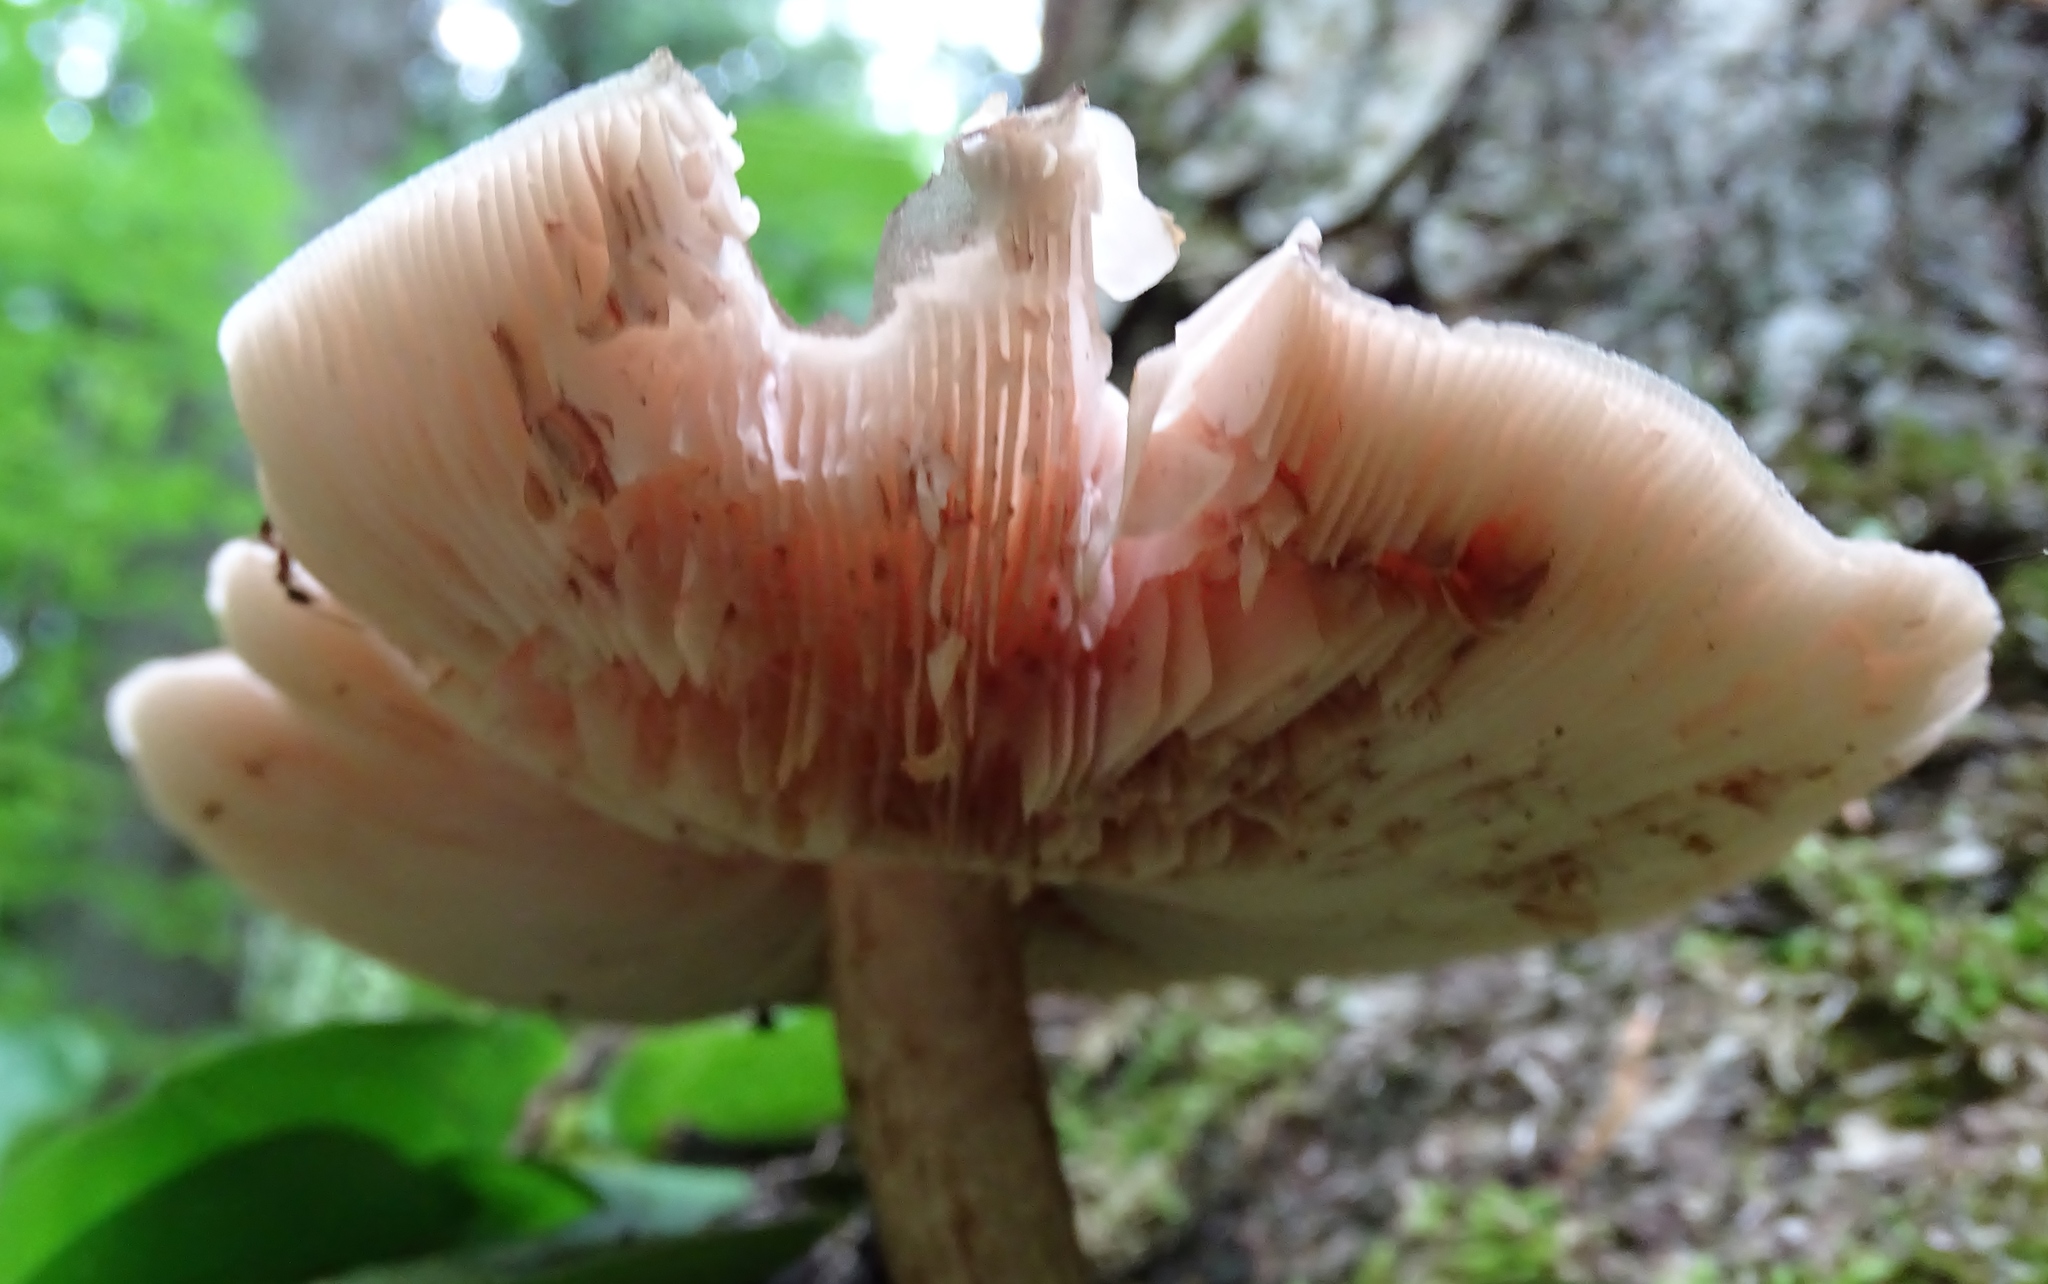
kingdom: Fungi
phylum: Basidiomycota
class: Agaricomycetes
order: Agaricales
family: Pluteaceae
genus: Pluteus
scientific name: Pluteus cervinus
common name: Deer shield
